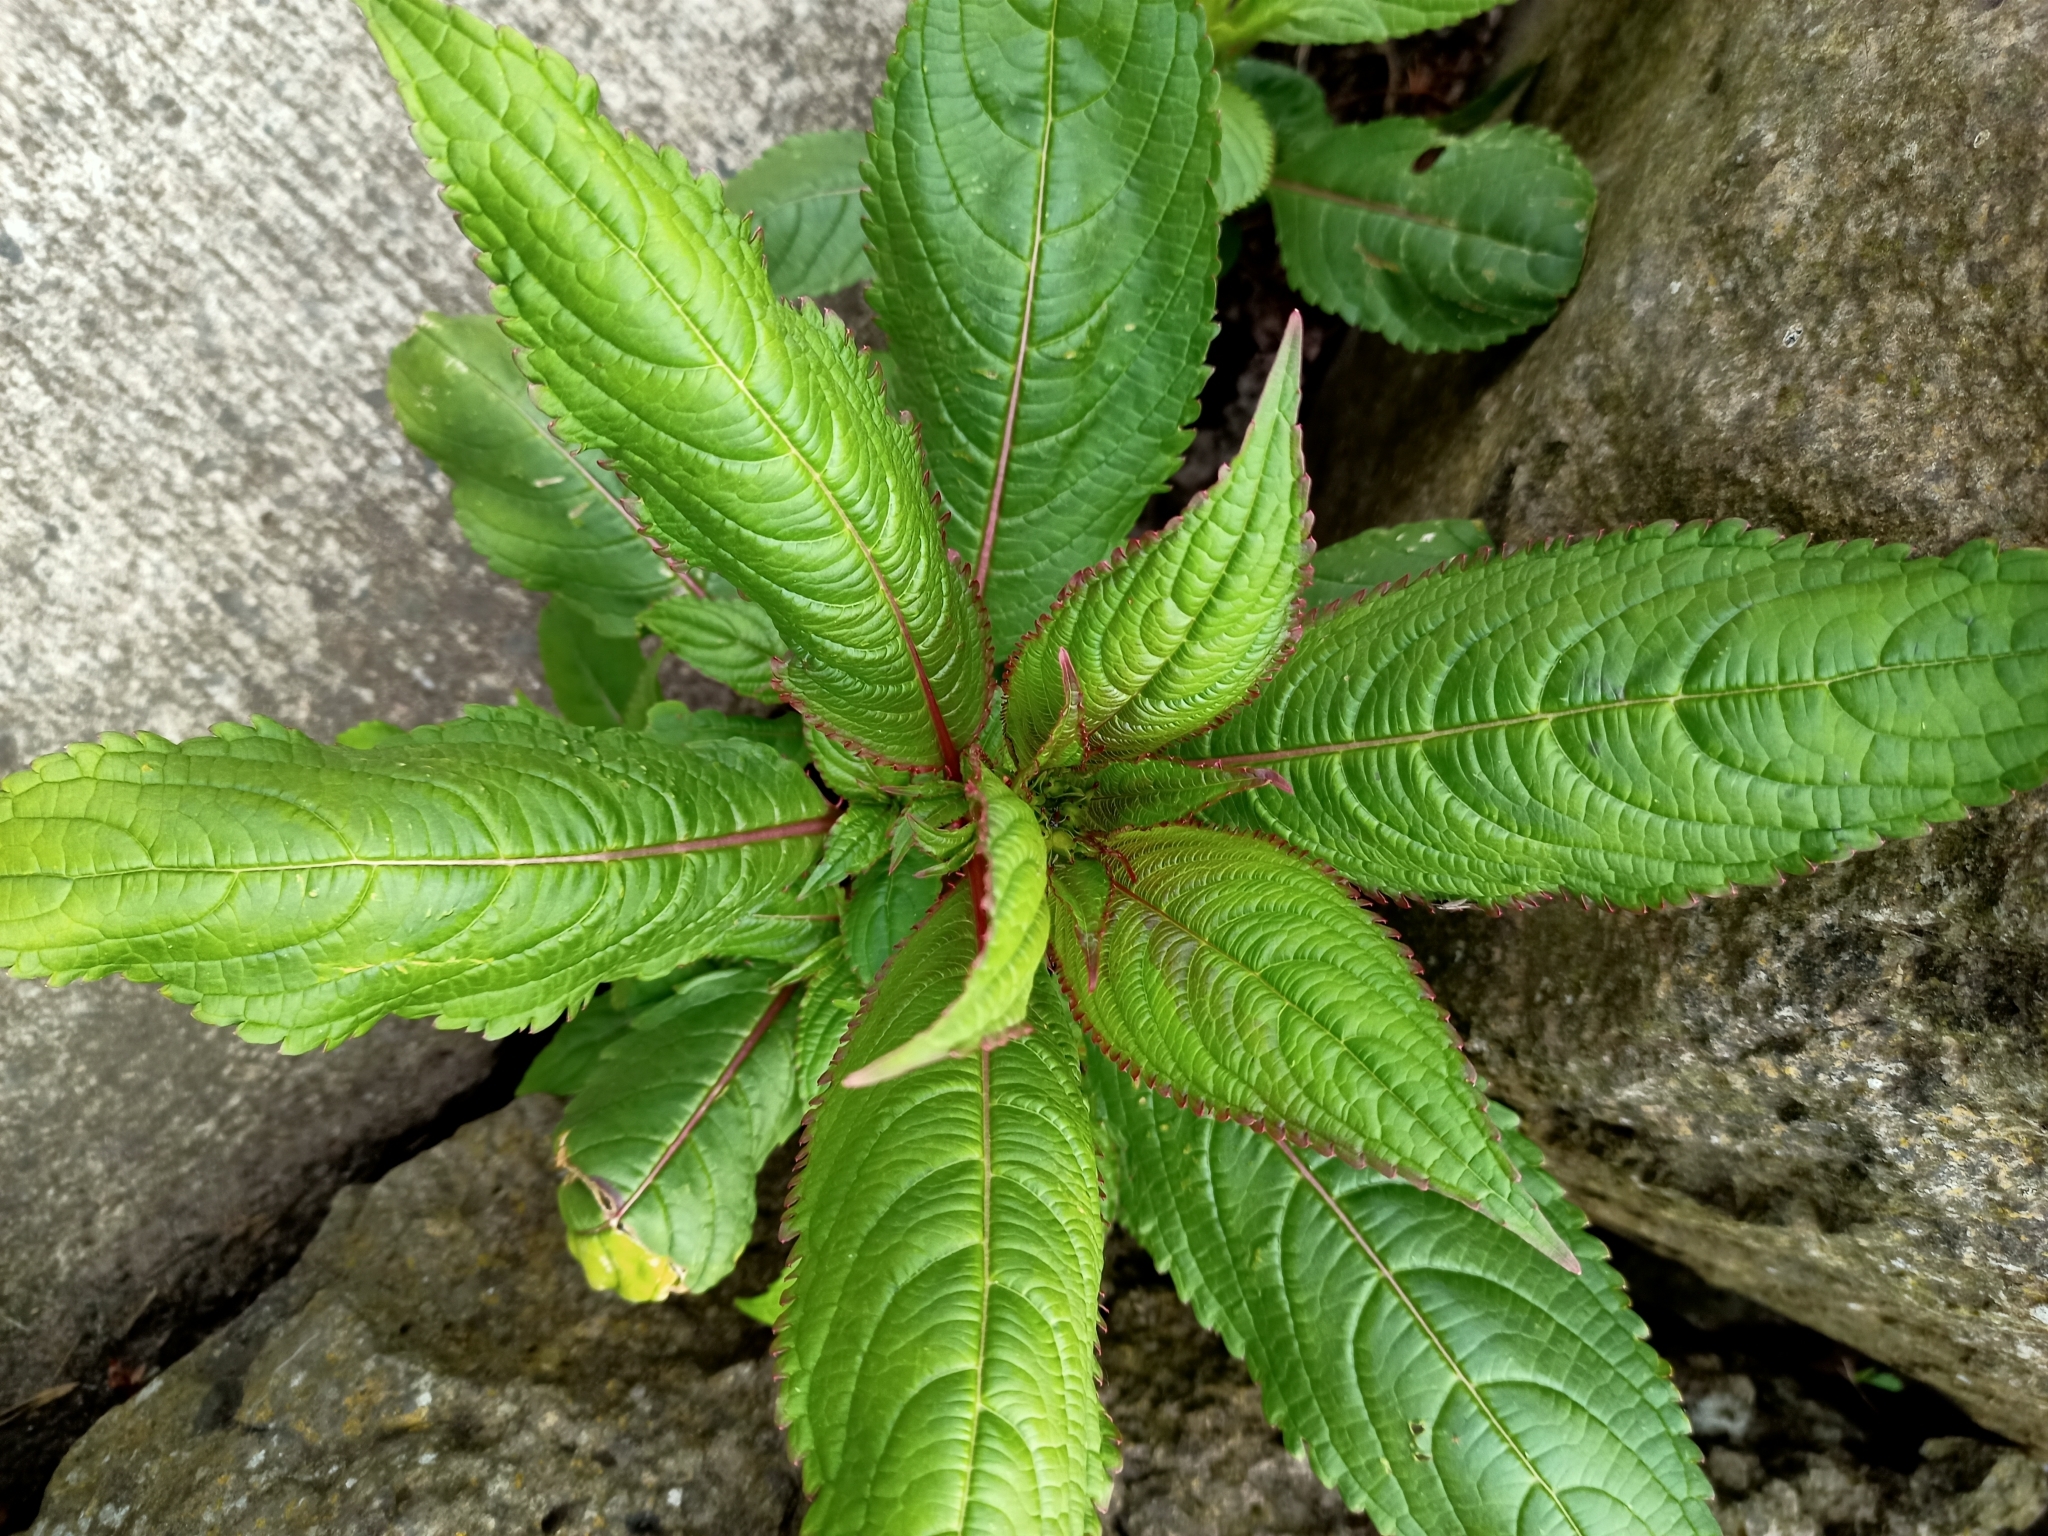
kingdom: Plantae
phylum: Tracheophyta
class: Magnoliopsida
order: Ericales
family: Balsaminaceae
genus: Impatiens
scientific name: Impatiens glandulifera
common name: Himalayan balsam
